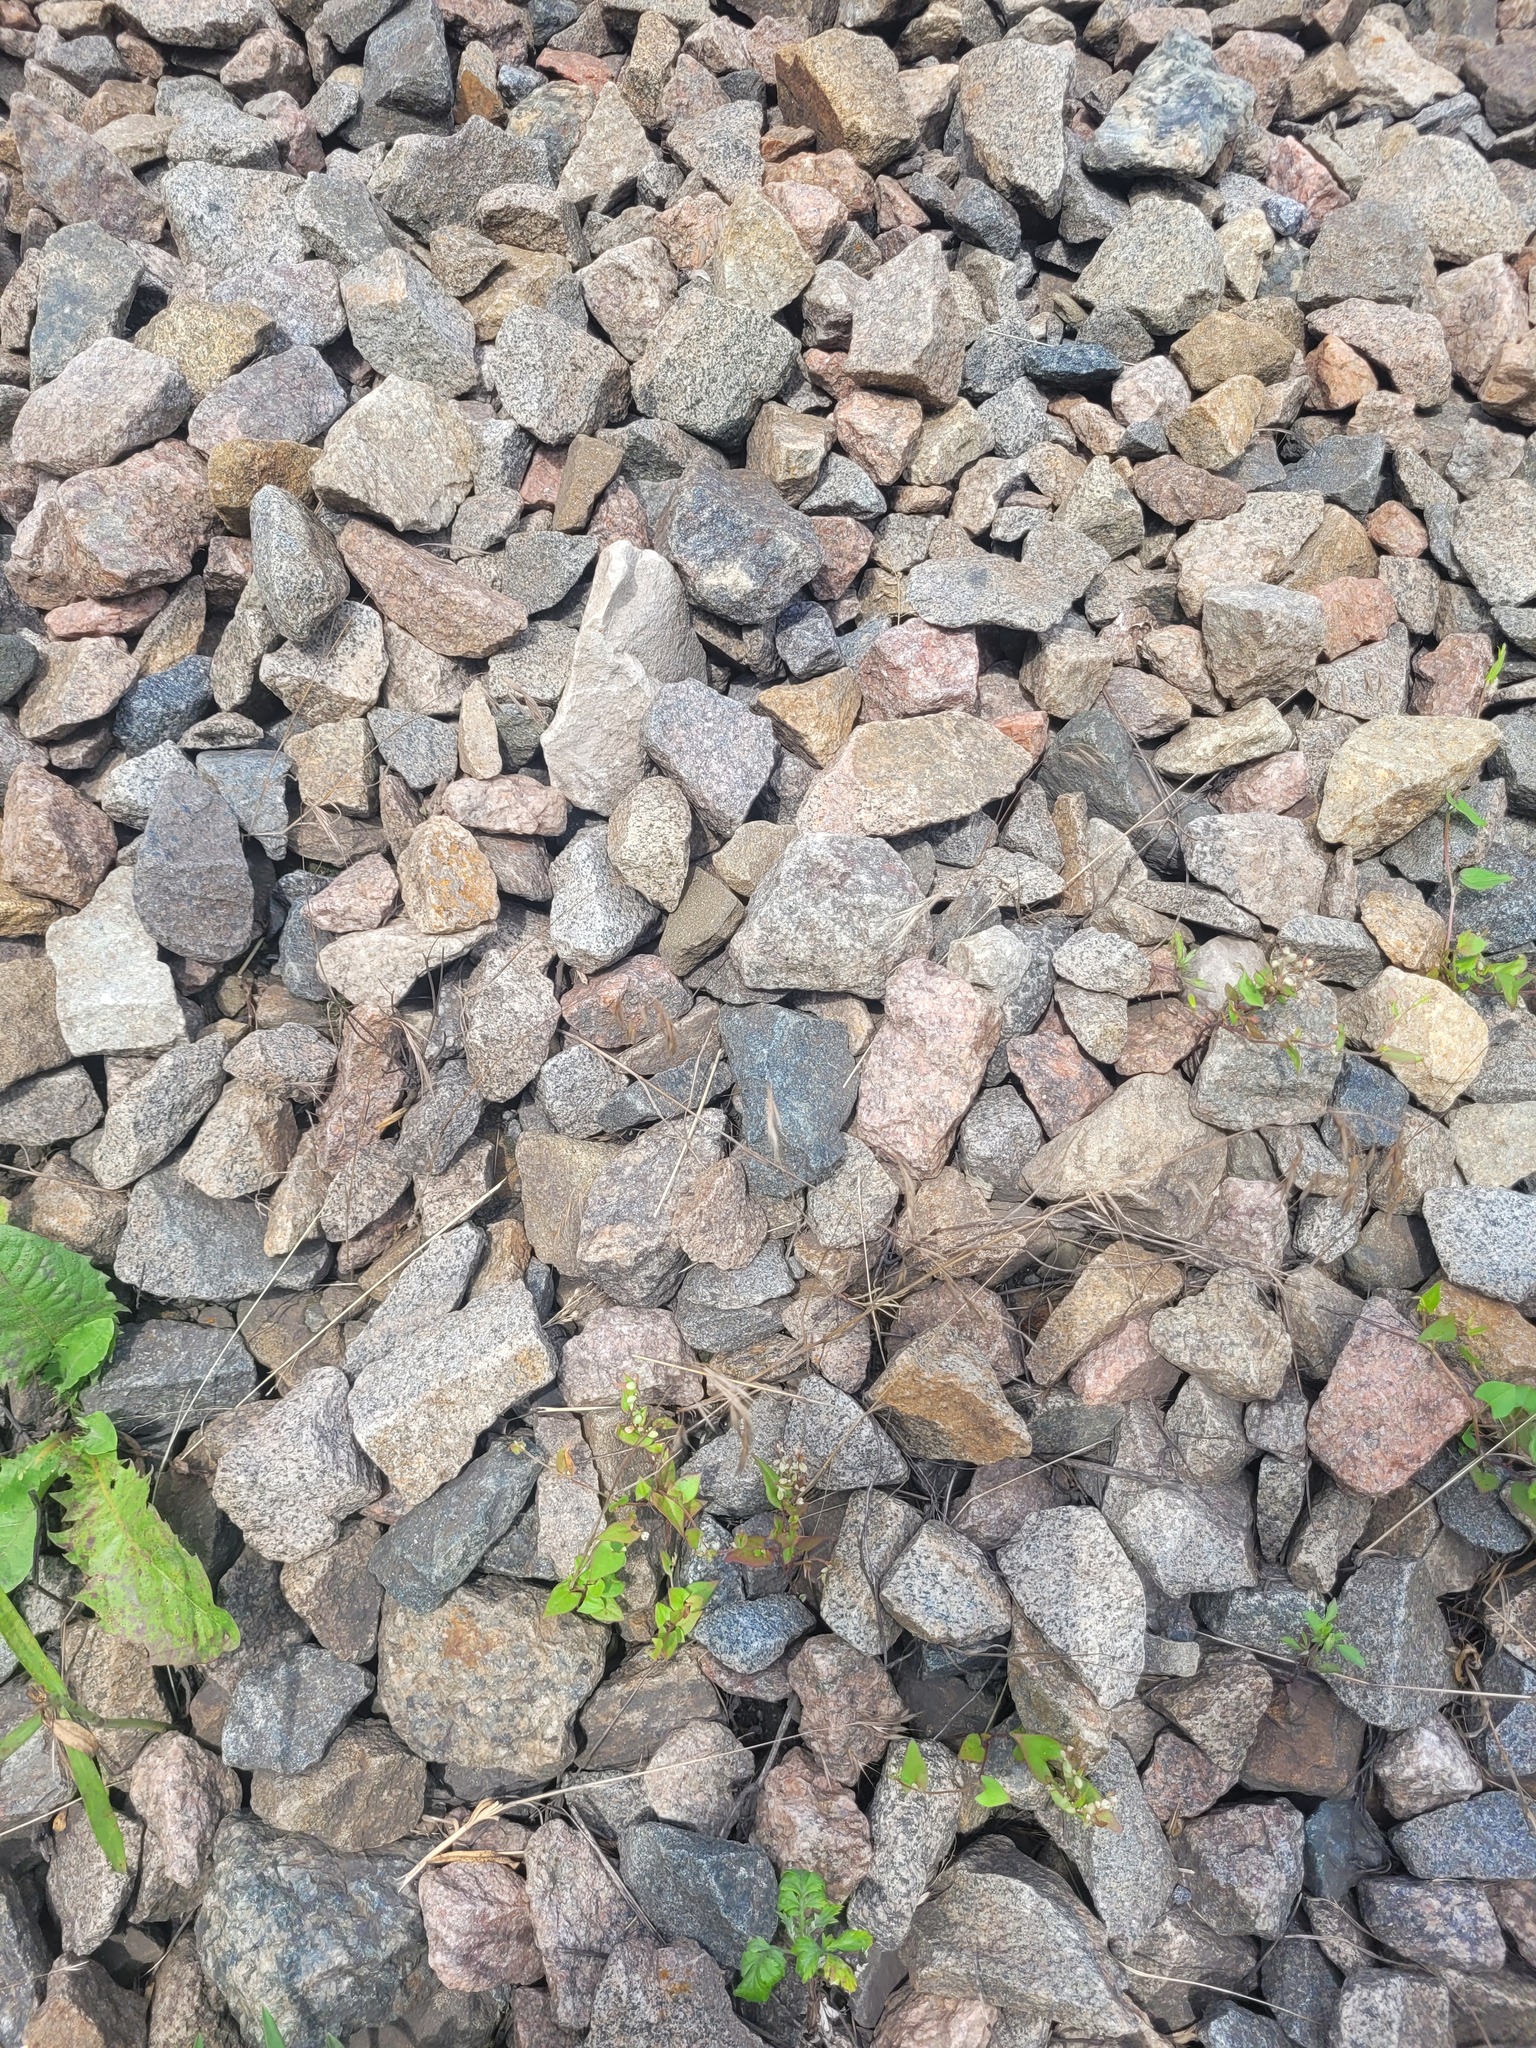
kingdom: Plantae
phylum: Tracheophyta
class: Liliopsida
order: Poales
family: Poaceae
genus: Bromus
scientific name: Bromus tectorum
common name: Cheatgrass
